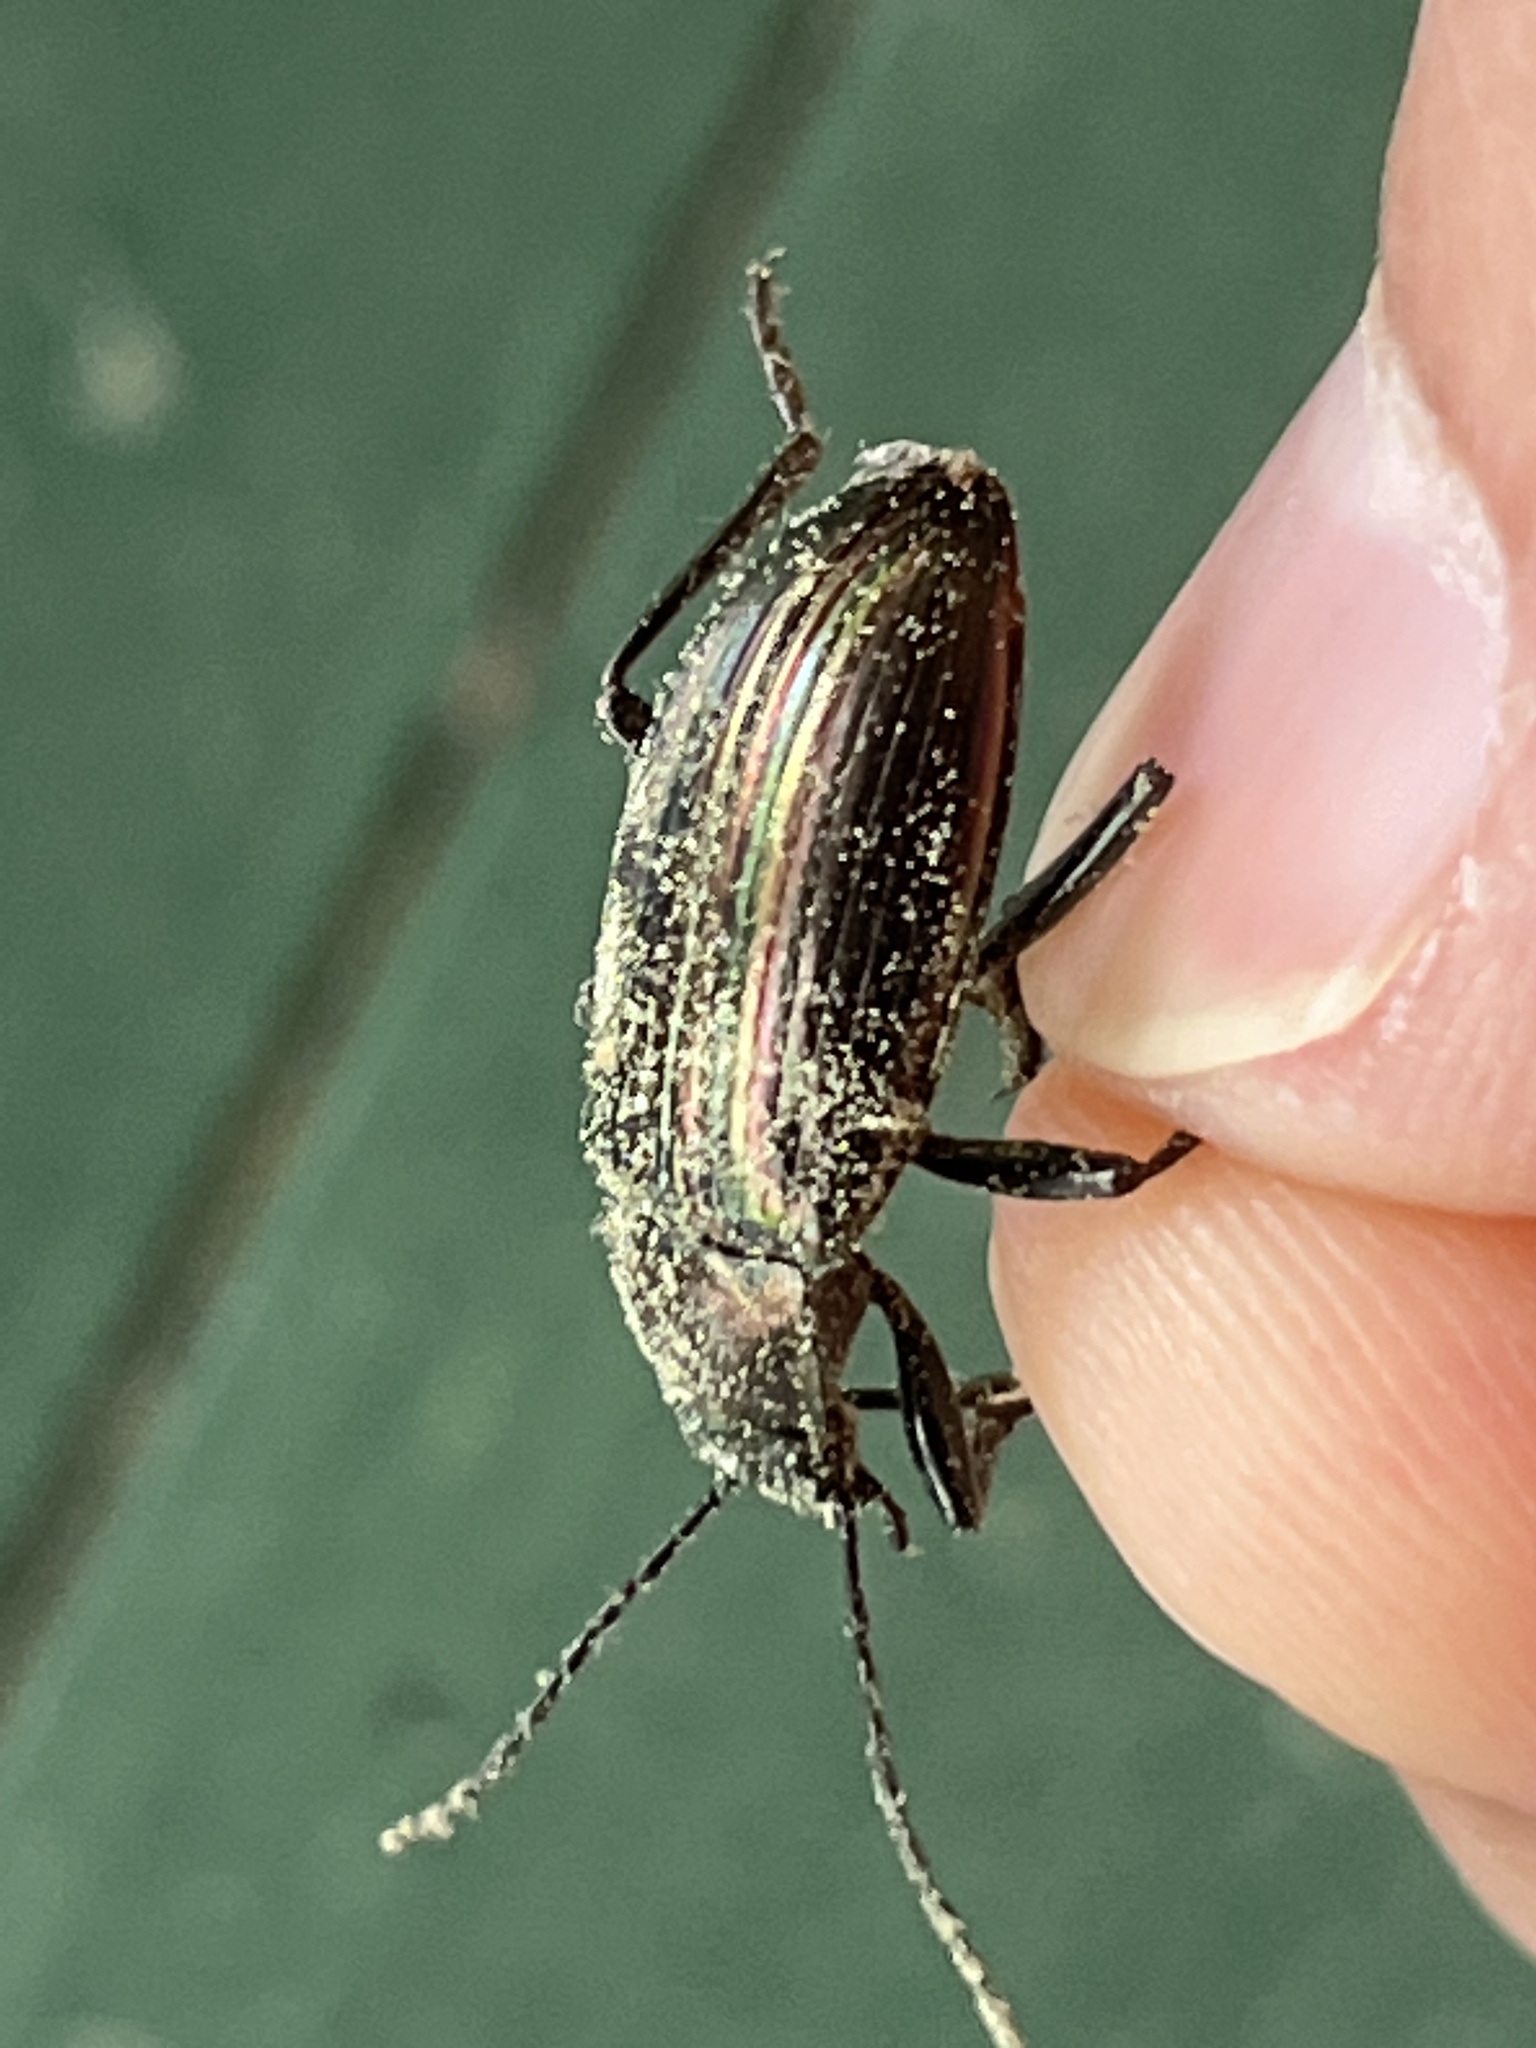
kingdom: Animalia
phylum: Arthropoda
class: Insecta
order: Coleoptera
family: Tenebrionidae
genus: Tarpela
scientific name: Tarpela micans
